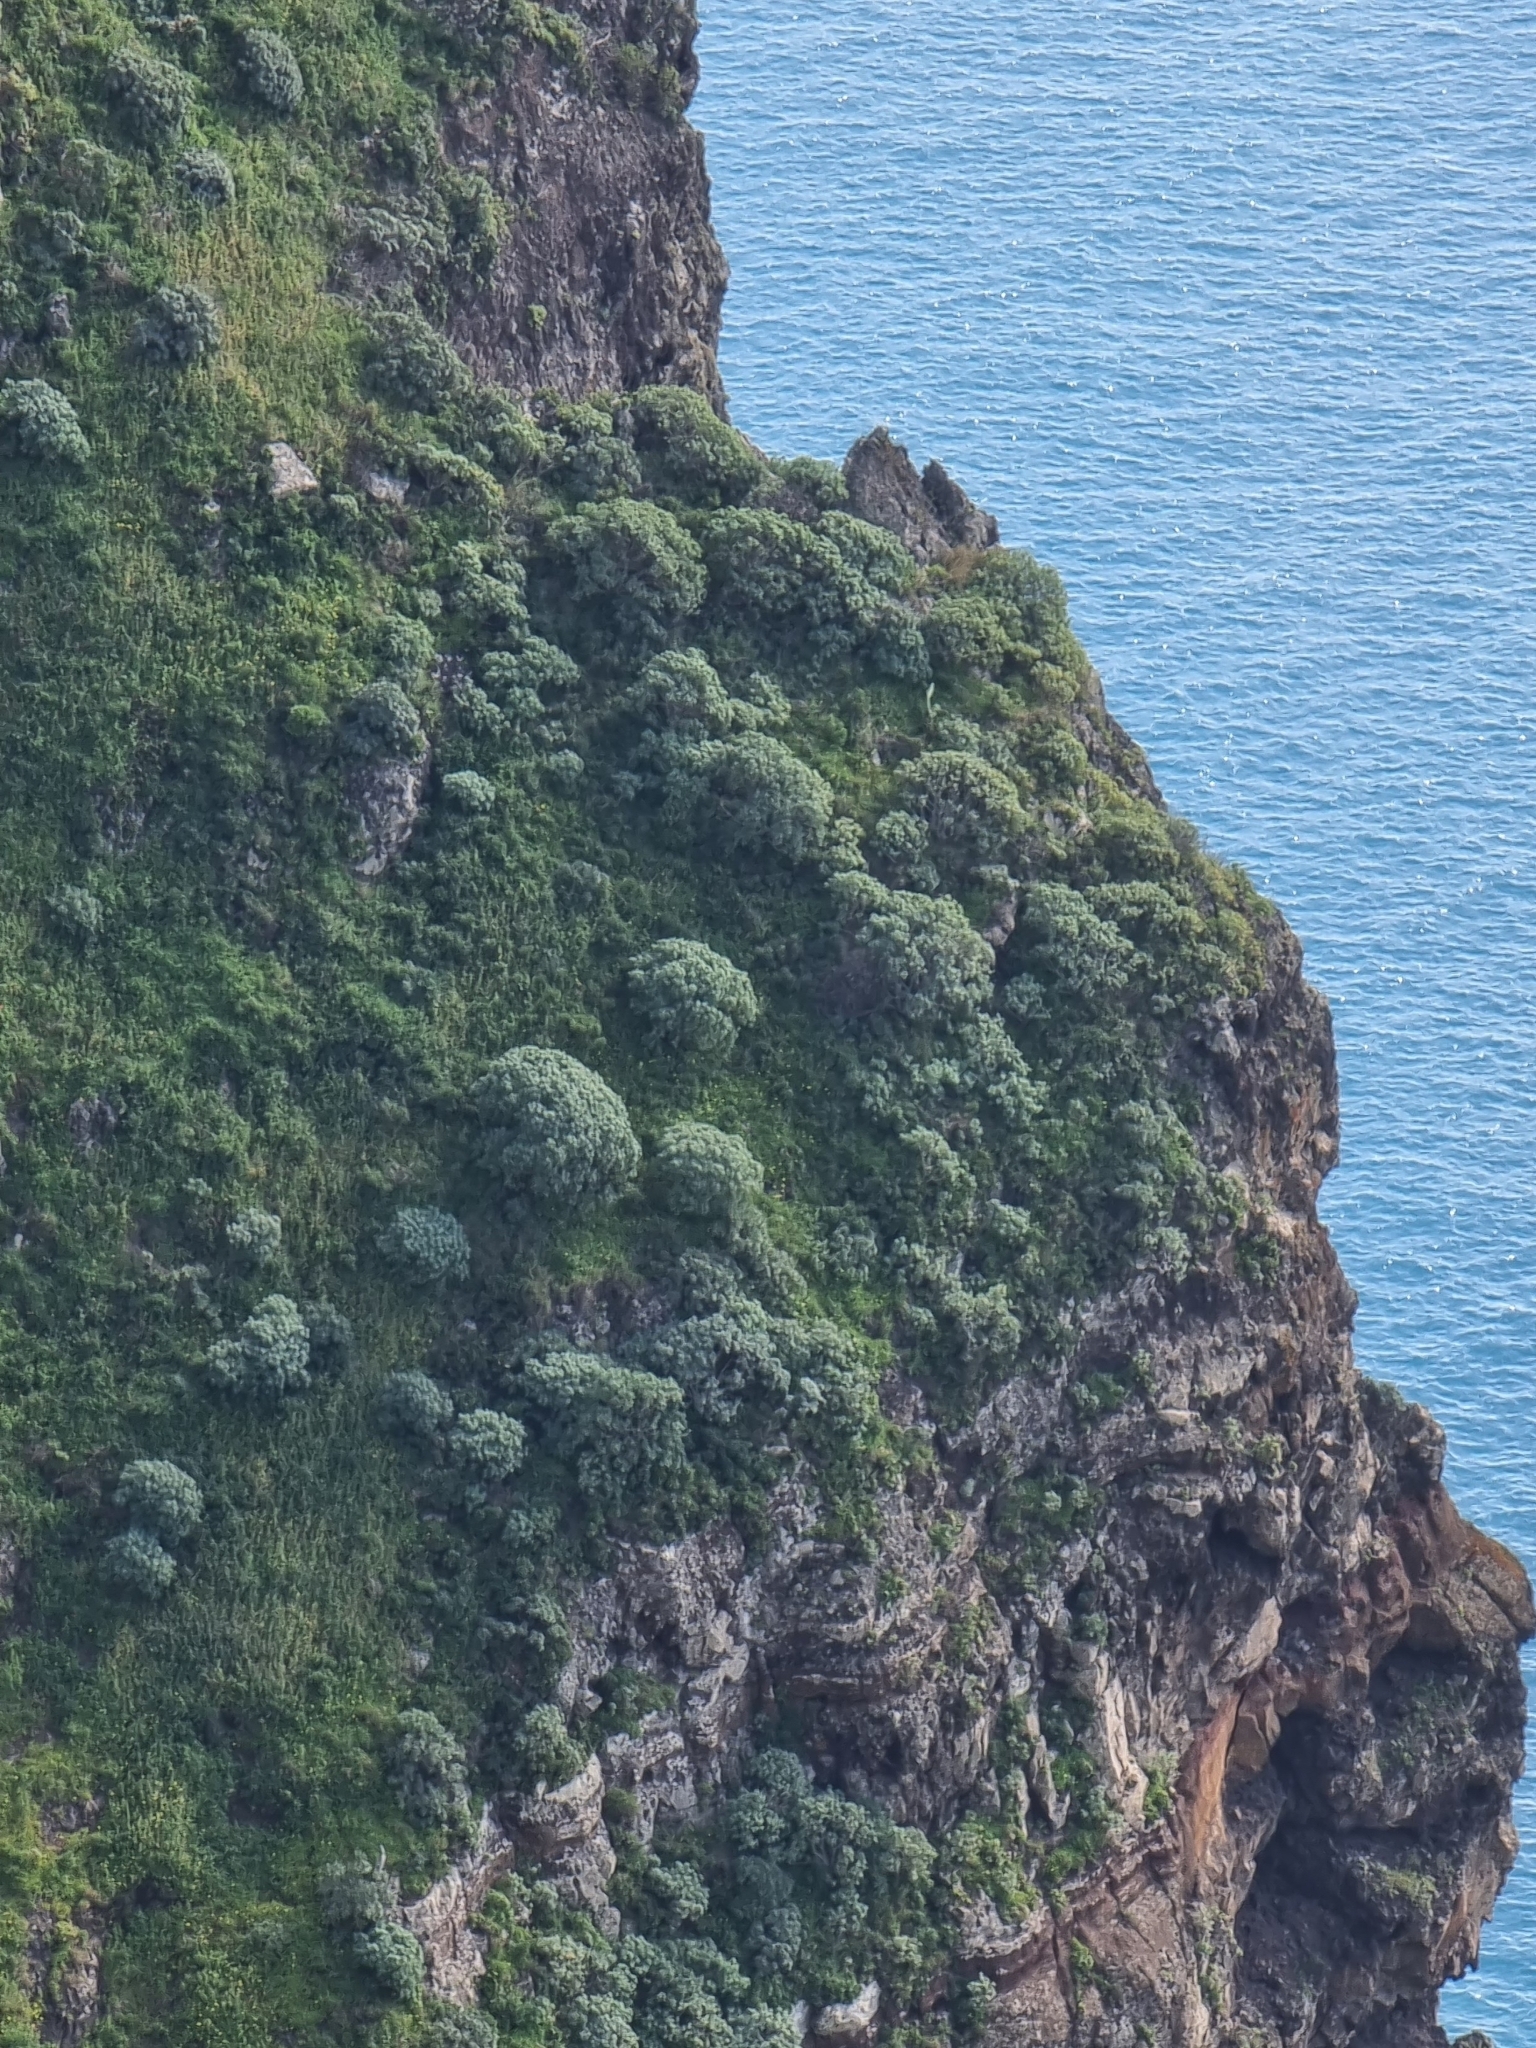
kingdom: Plantae
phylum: Tracheophyta
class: Magnoliopsida
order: Malpighiales
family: Euphorbiaceae
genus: Euphorbia
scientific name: Euphorbia piscatoria
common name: Fish-stunning spurge
